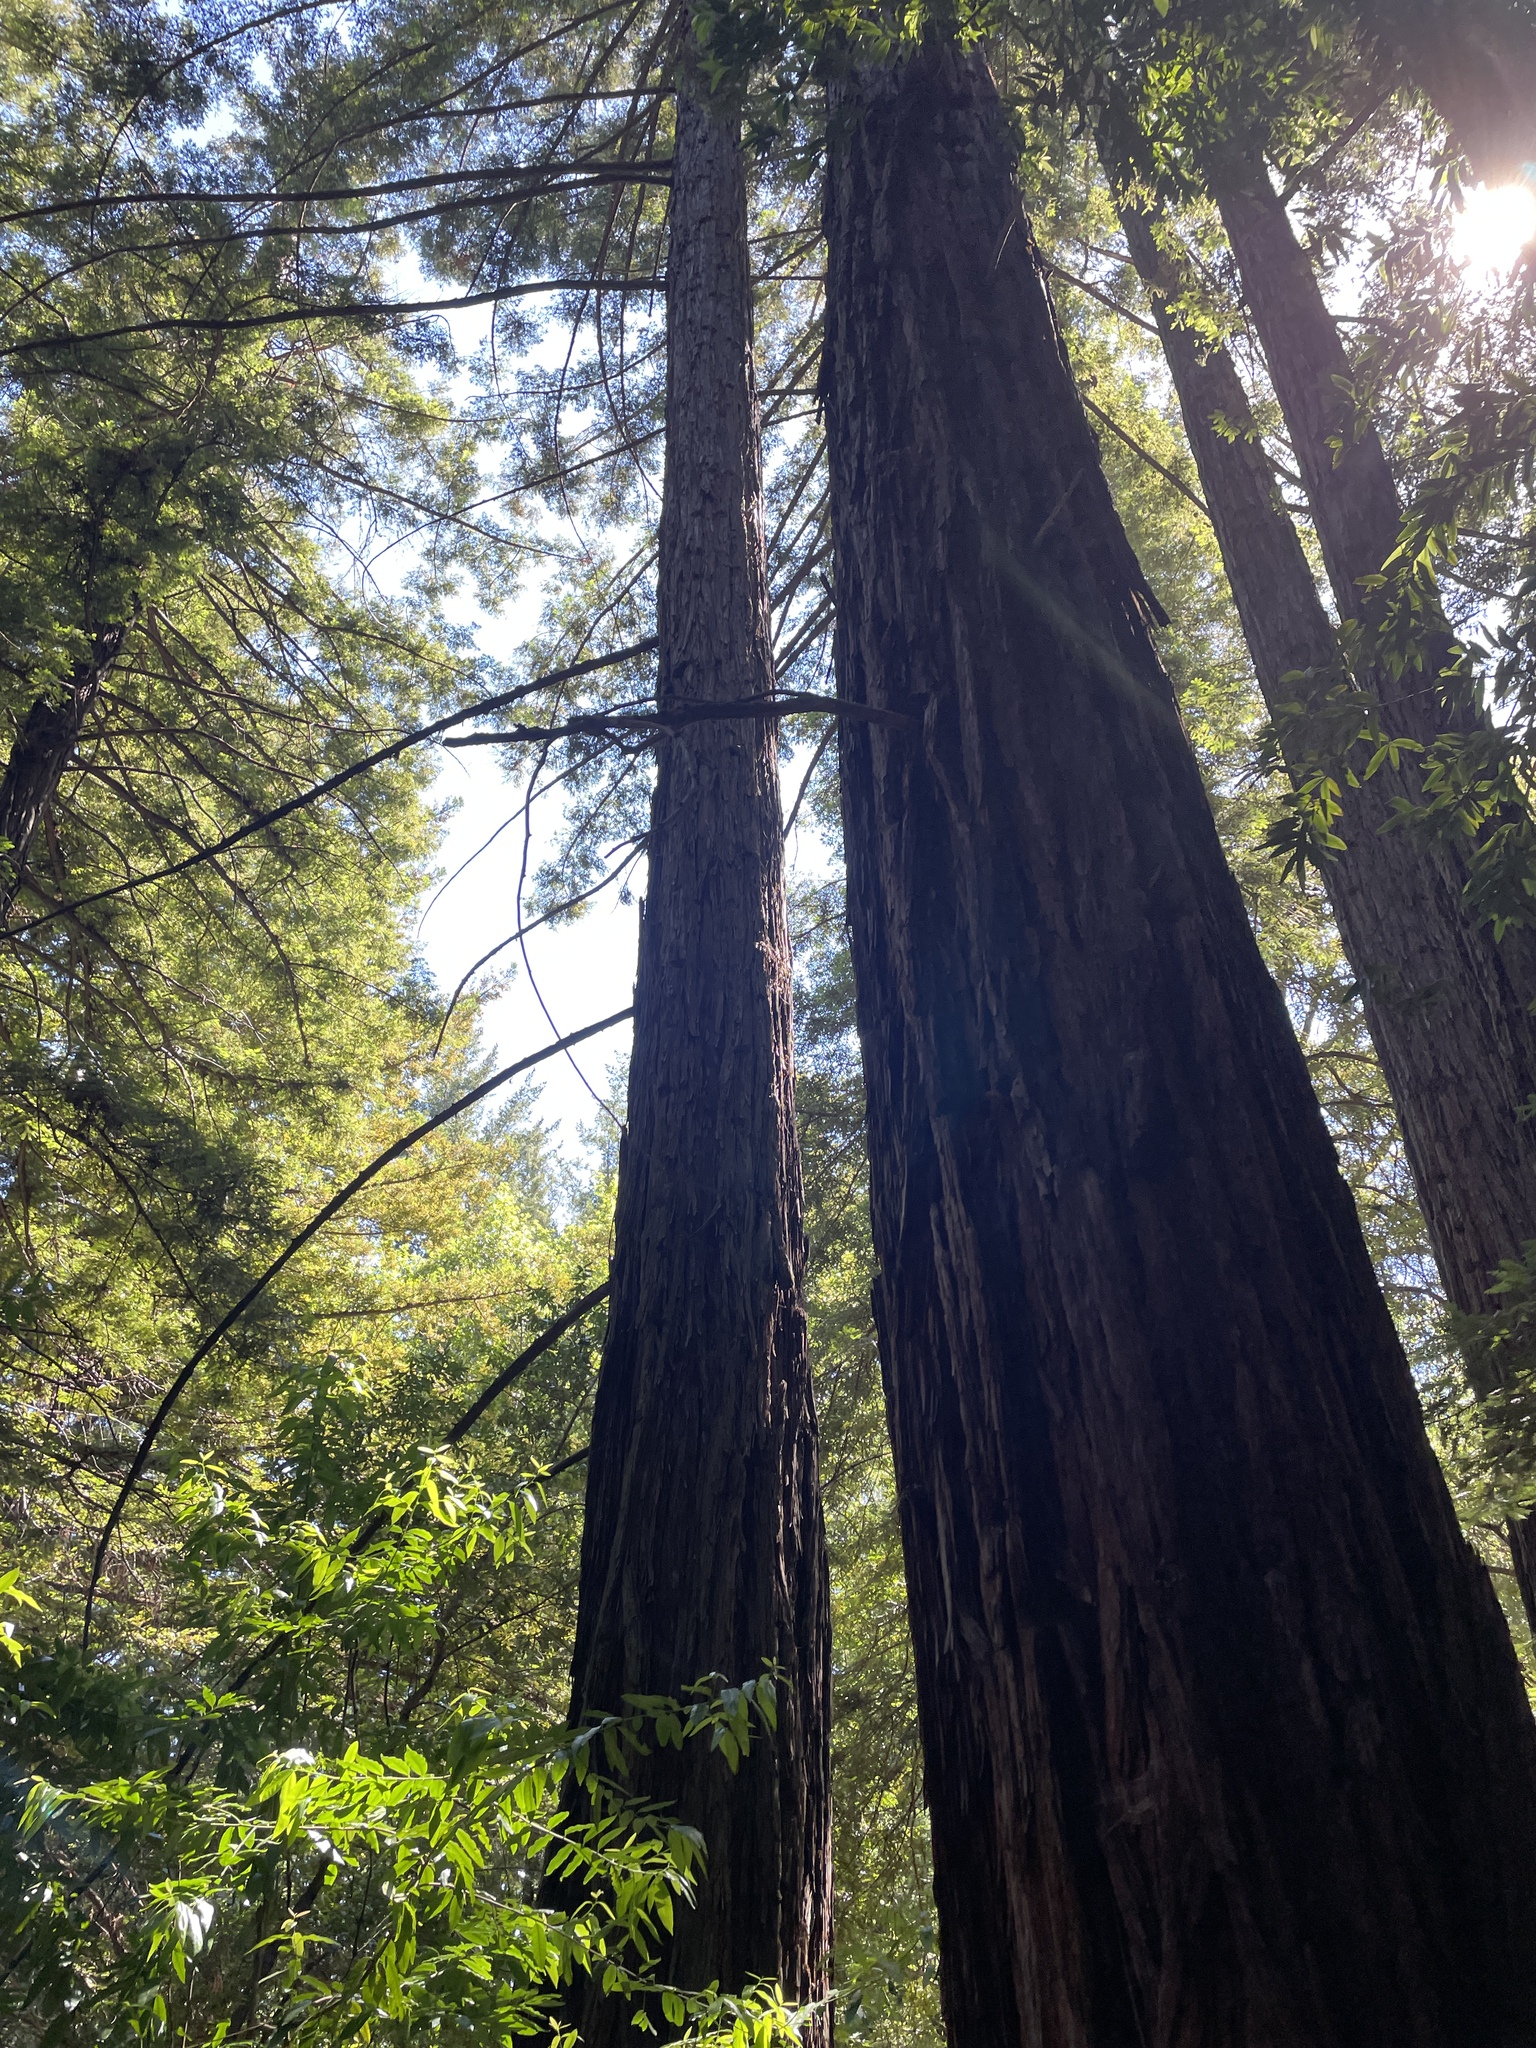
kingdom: Plantae
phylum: Tracheophyta
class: Pinopsida
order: Pinales
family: Cupressaceae
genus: Sequoia
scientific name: Sequoia sempervirens
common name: Coast redwood
